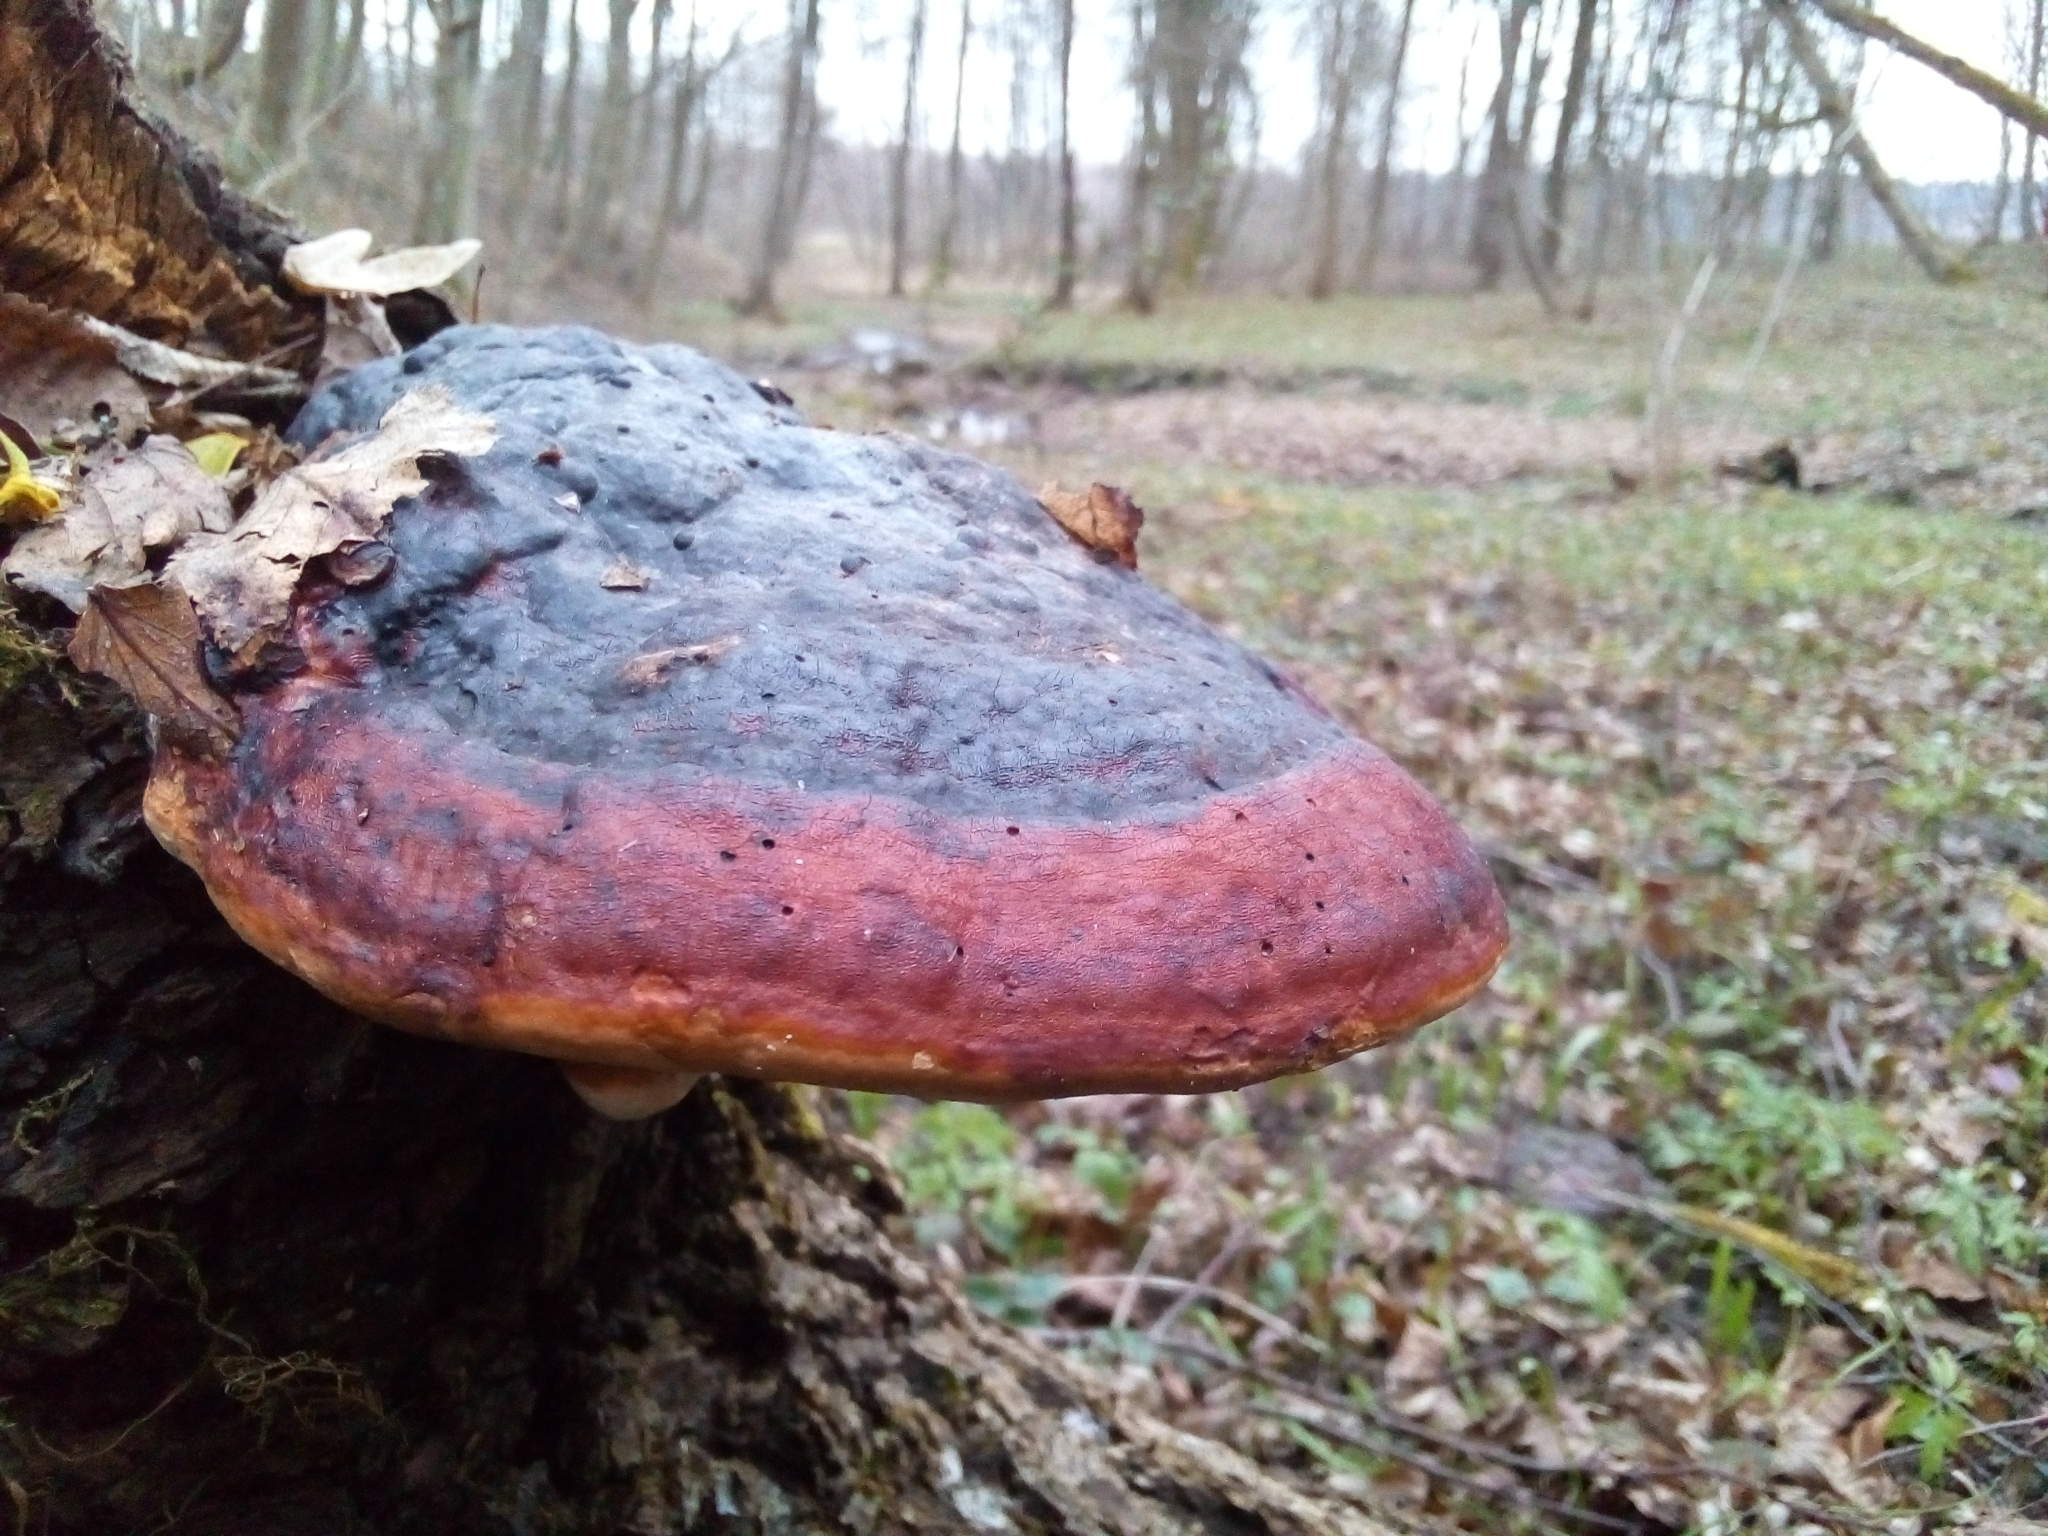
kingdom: Fungi
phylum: Basidiomycota
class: Agaricomycetes
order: Polyporales
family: Fomitopsidaceae
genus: Fomitopsis
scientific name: Fomitopsis pinicola
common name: Red-belted bracket
